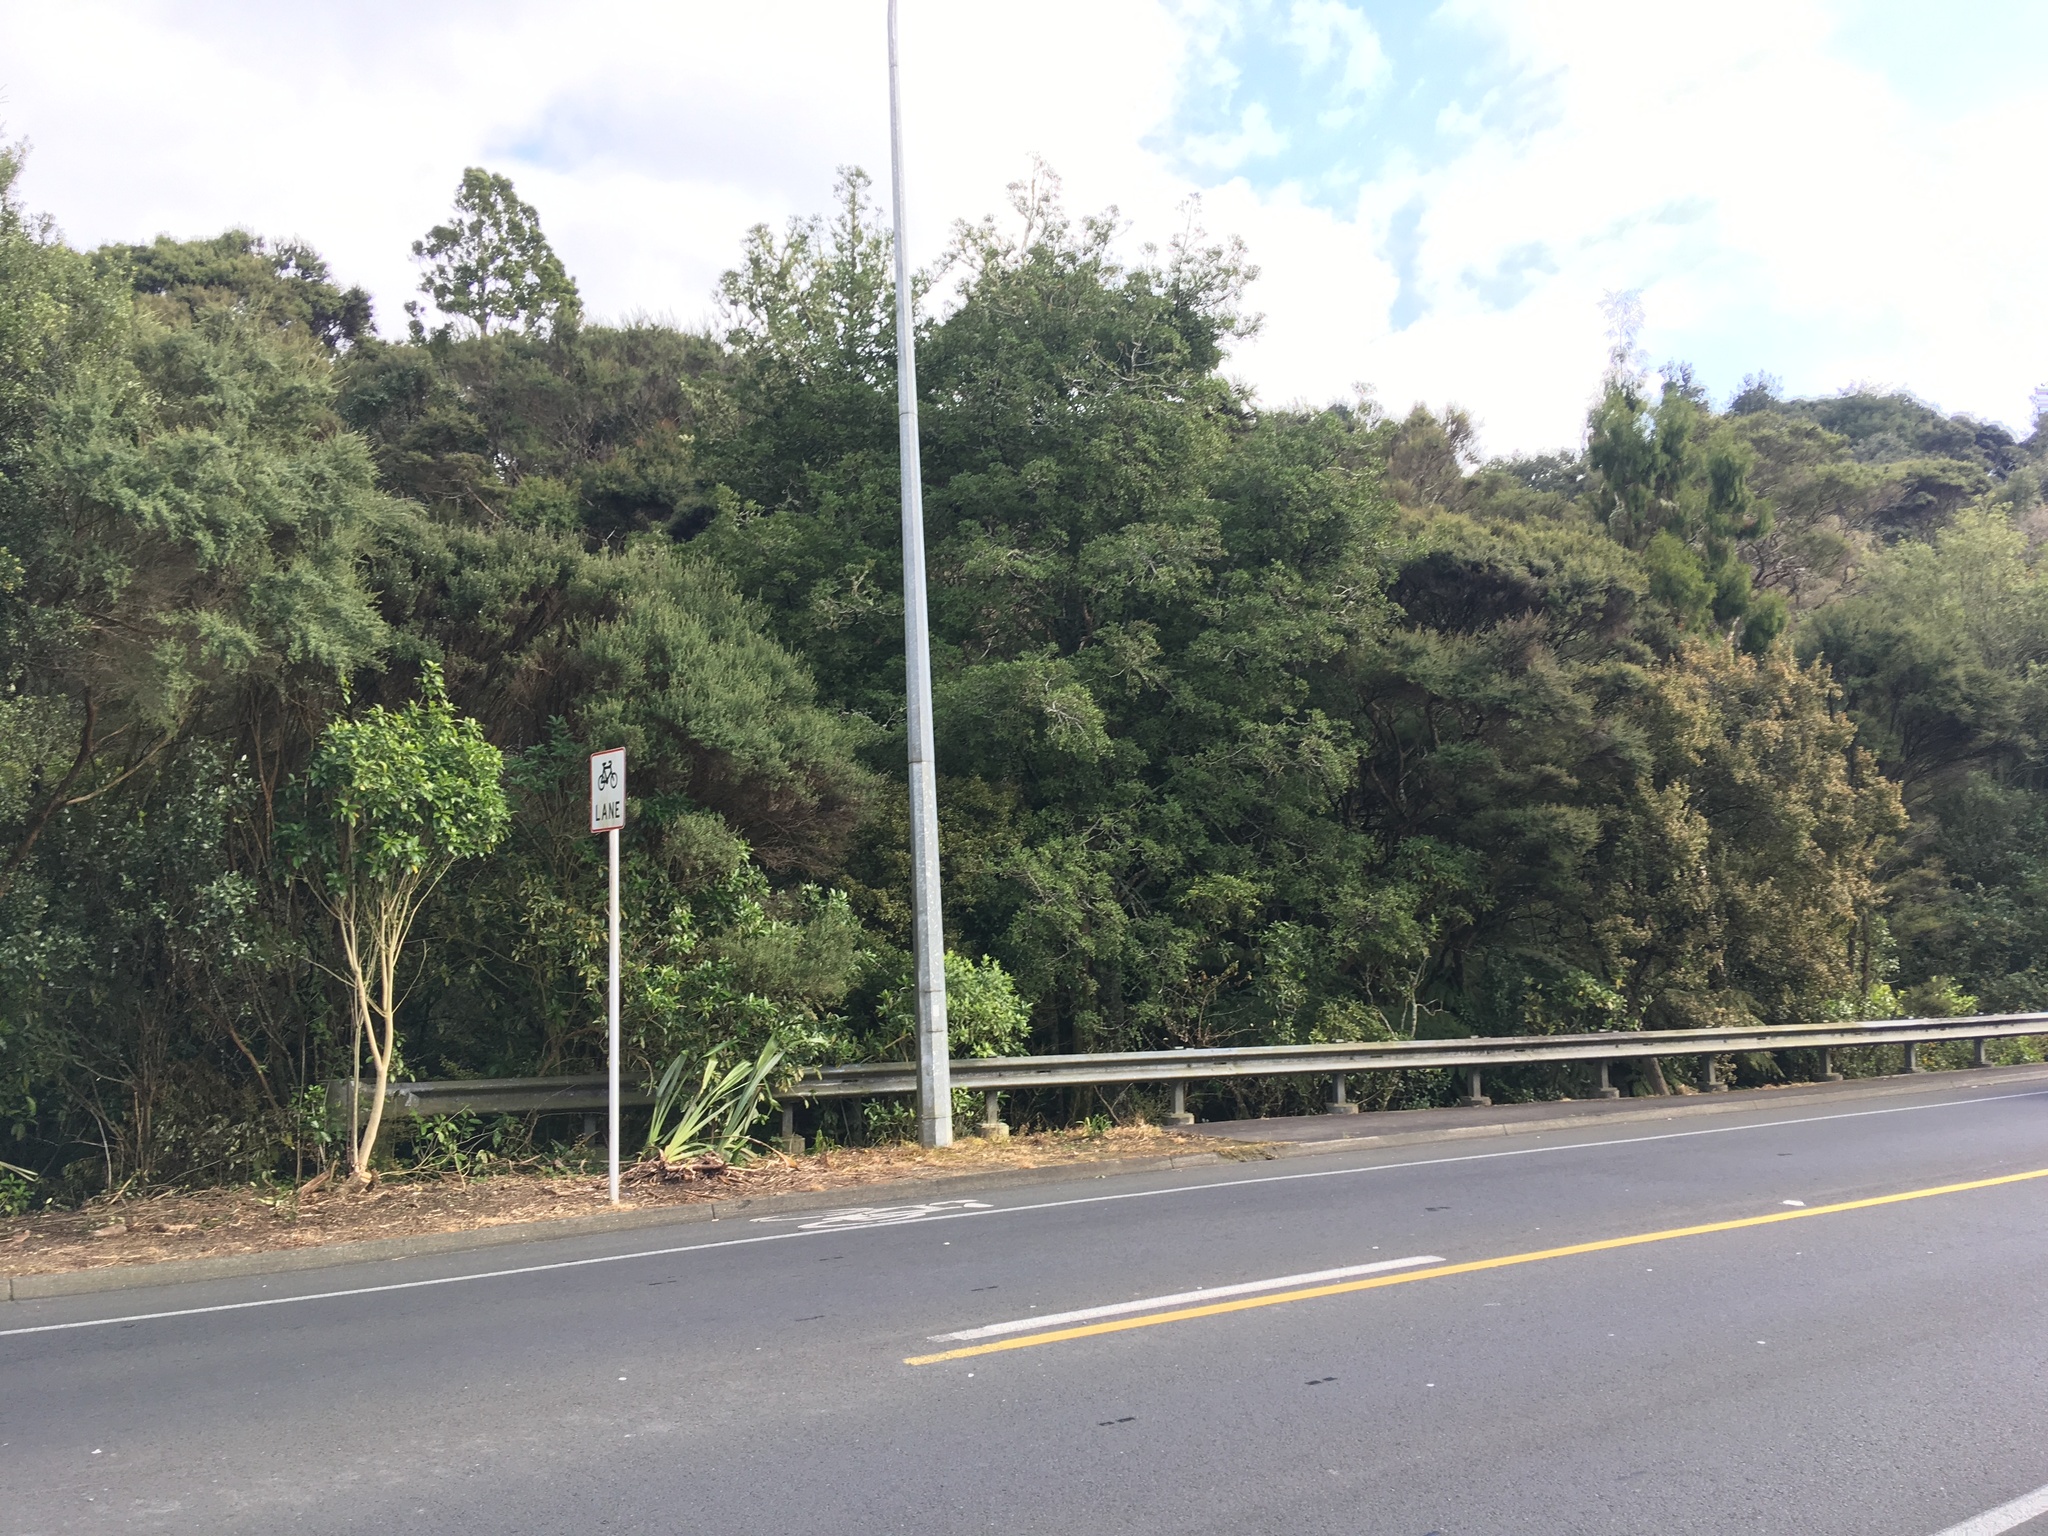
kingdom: Plantae
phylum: Tracheophyta
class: Pinopsida
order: Pinales
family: Podocarpaceae
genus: Dacrydium
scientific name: Dacrydium cupressinum
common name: Red pine
